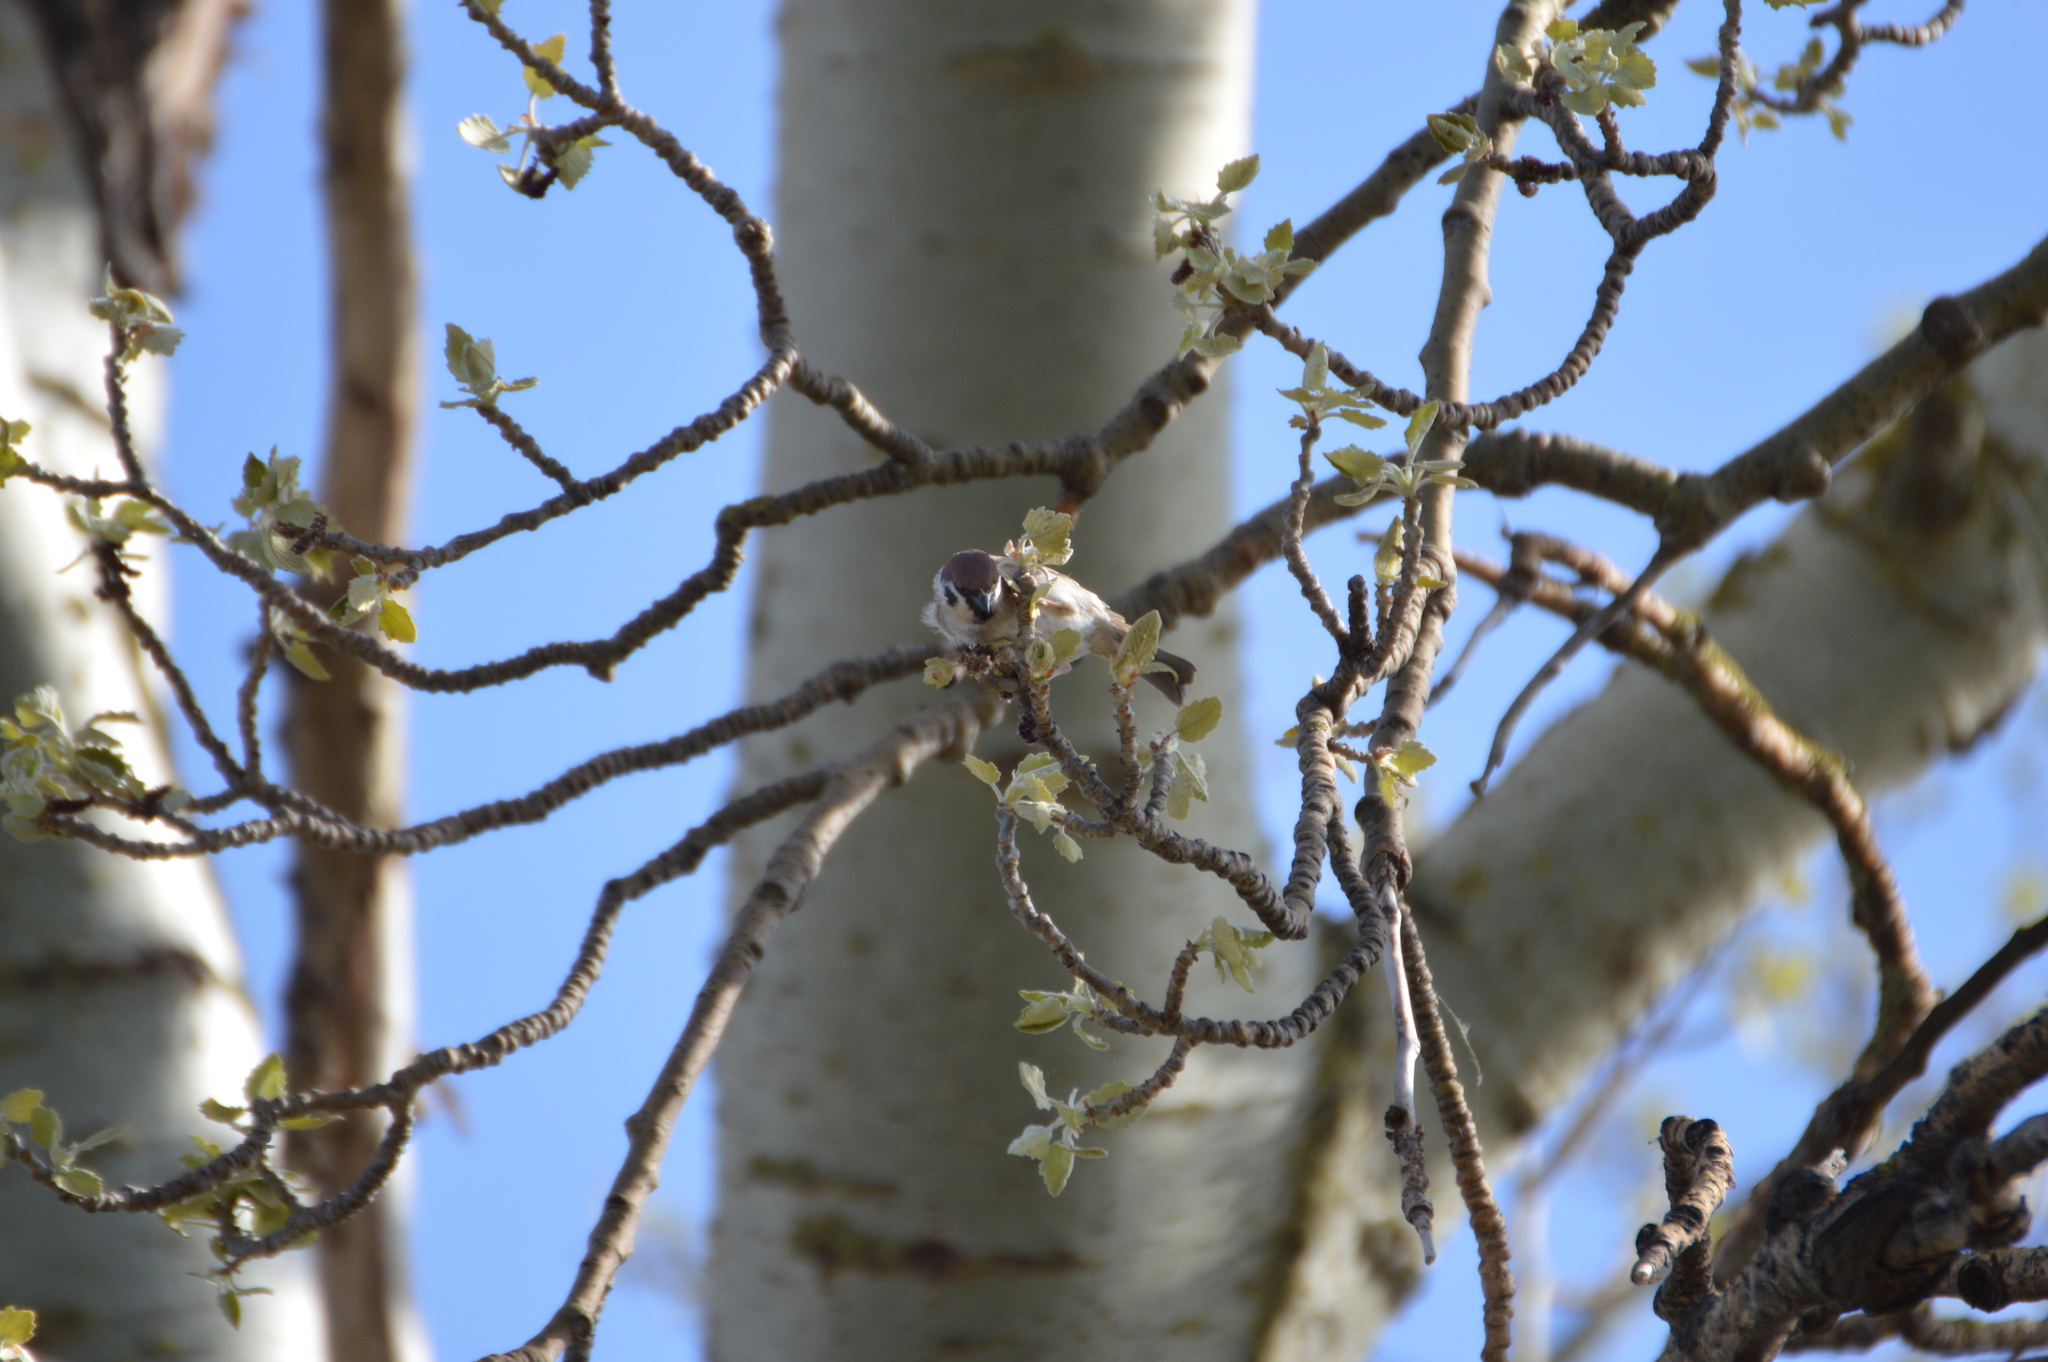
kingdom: Animalia
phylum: Chordata
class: Aves
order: Passeriformes
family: Passeridae
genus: Passer
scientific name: Passer montanus
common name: Eurasian tree sparrow
